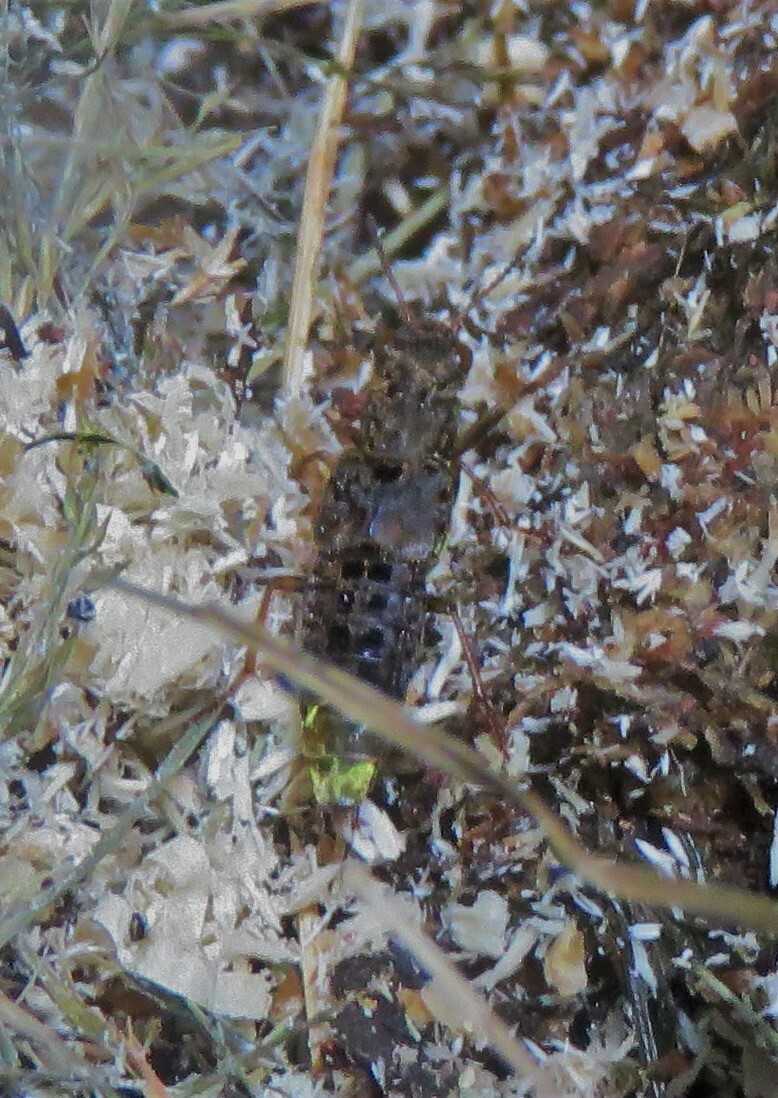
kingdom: Animalia
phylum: Arthropoda
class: Insecta
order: Coleoptera
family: Staphylinidae
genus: Ontholestes
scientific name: Ontholestes cingulatus
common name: Gold-and-brown rove beetle
